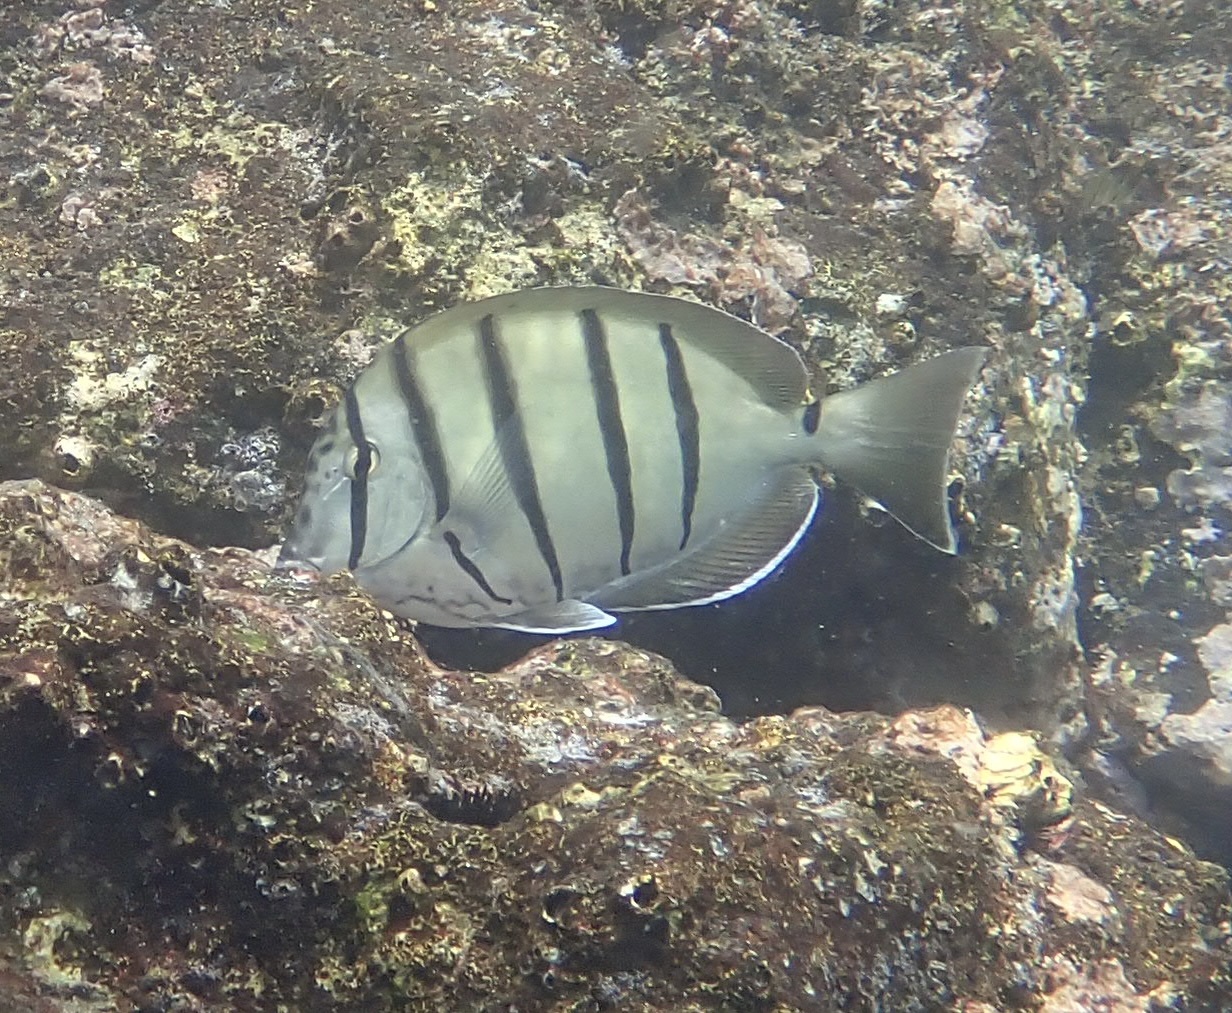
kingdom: Animalia
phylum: Chordata
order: Perciformes
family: Acanthuridae
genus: Acanthurus
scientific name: Acanthurus triostegus
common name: Convict surgeonfish
